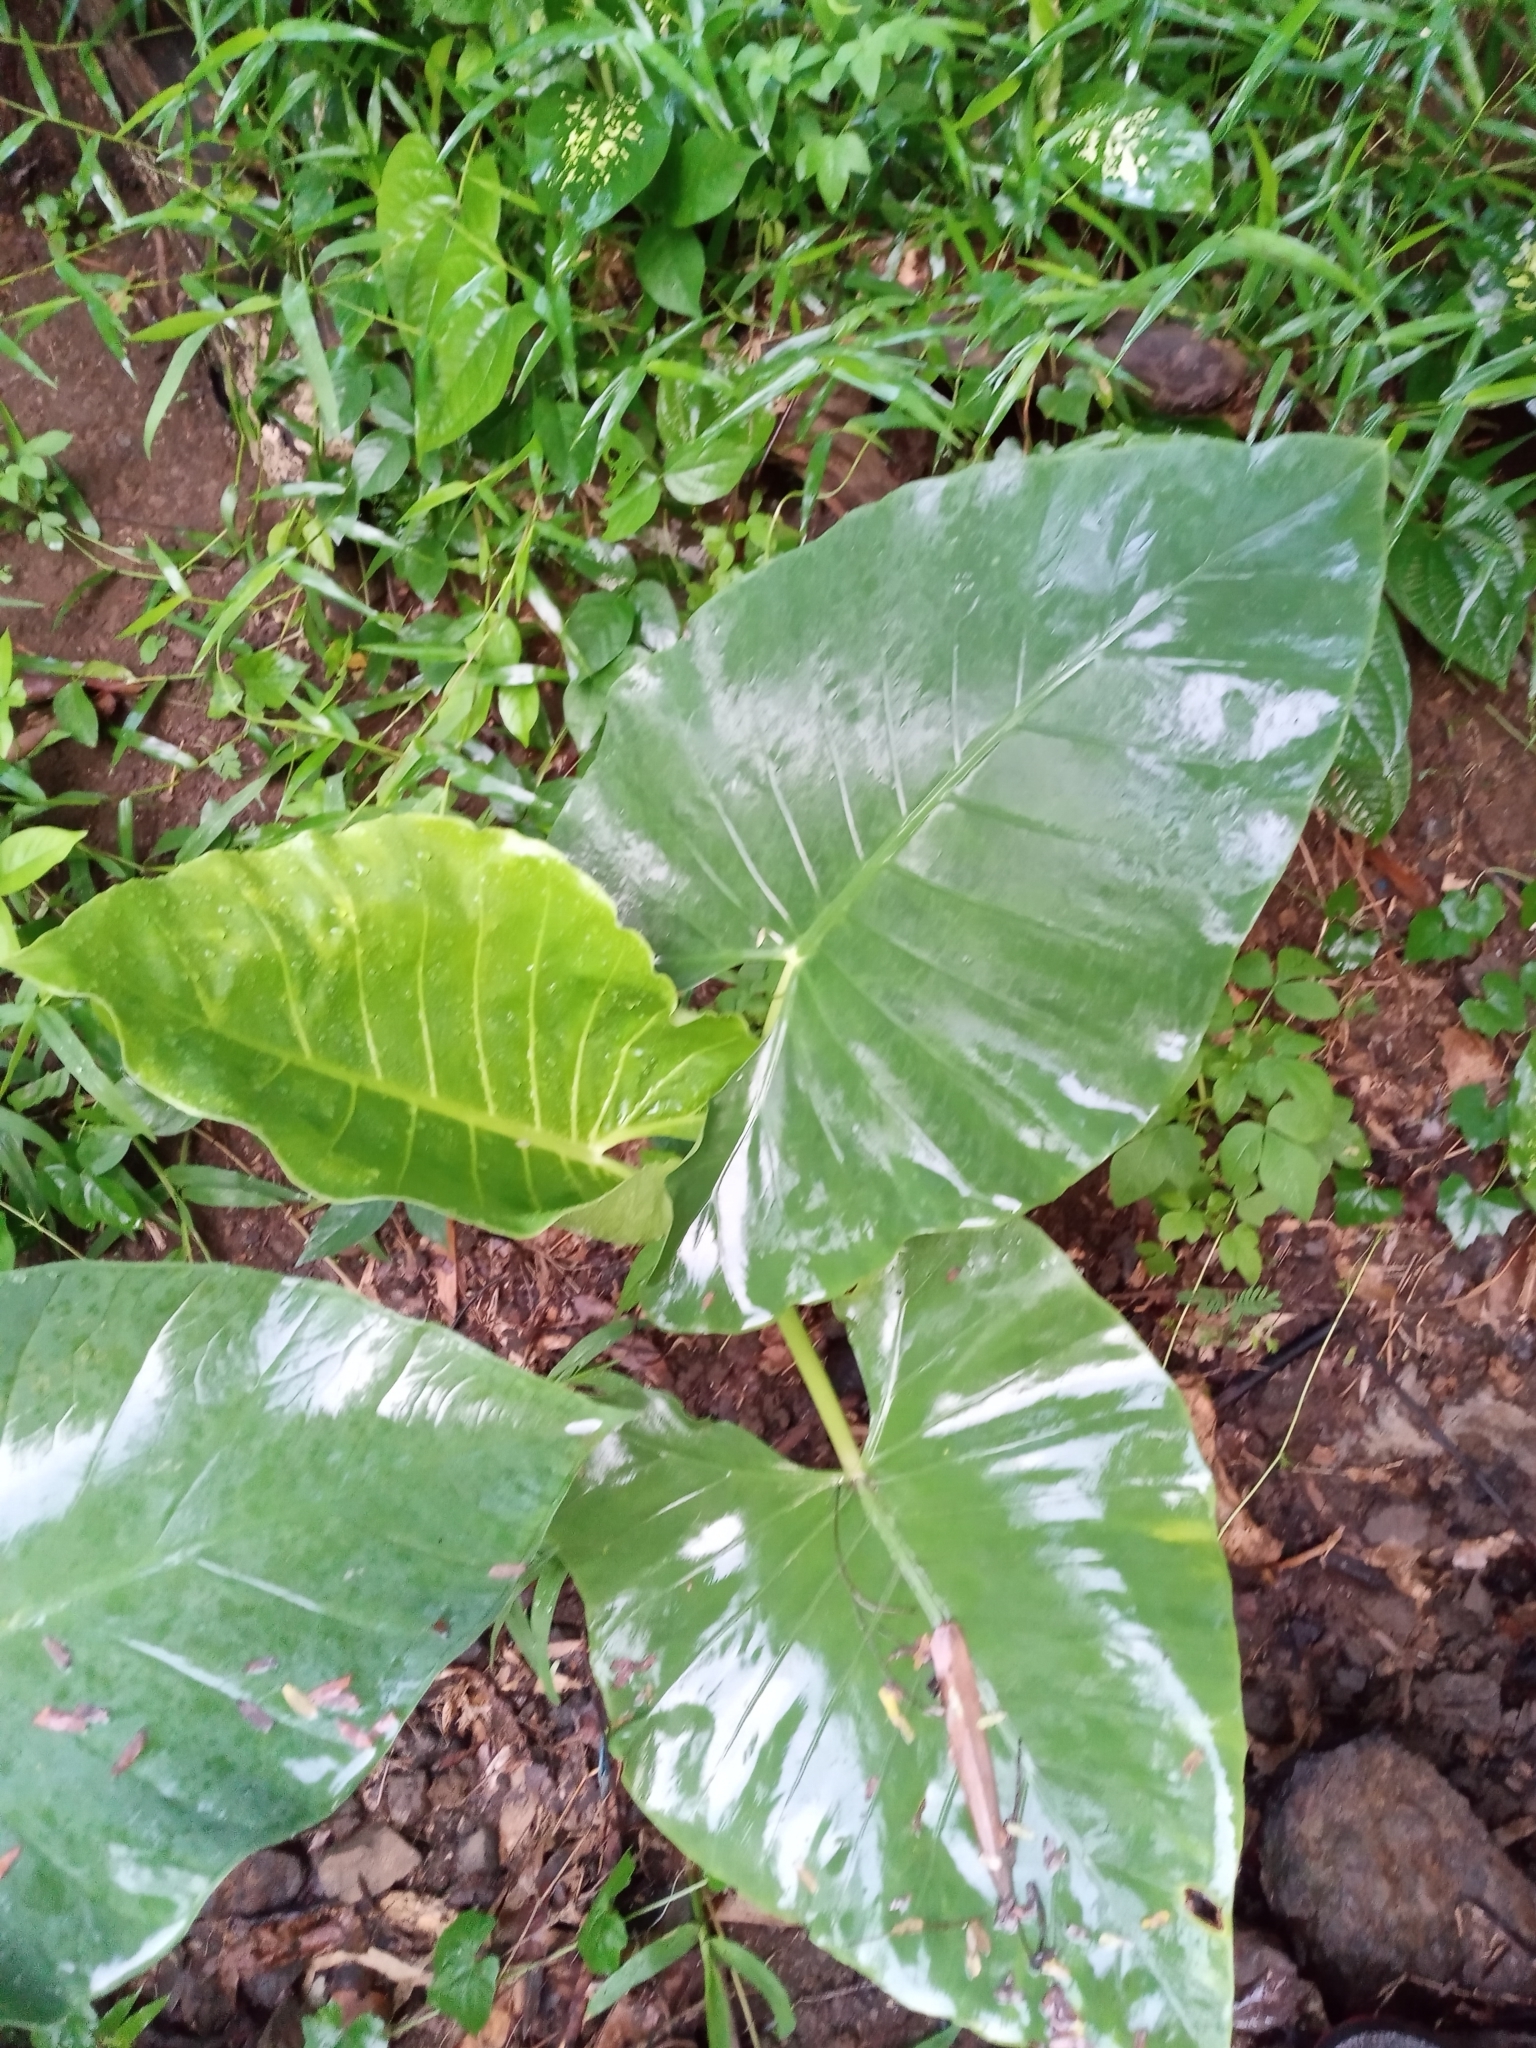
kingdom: Plantae
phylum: Tracheophyta
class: Liliopsida
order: Alismatales
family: Araceae
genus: Alocasia
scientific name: Alocasia macrorrhizos
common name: Giant taro
